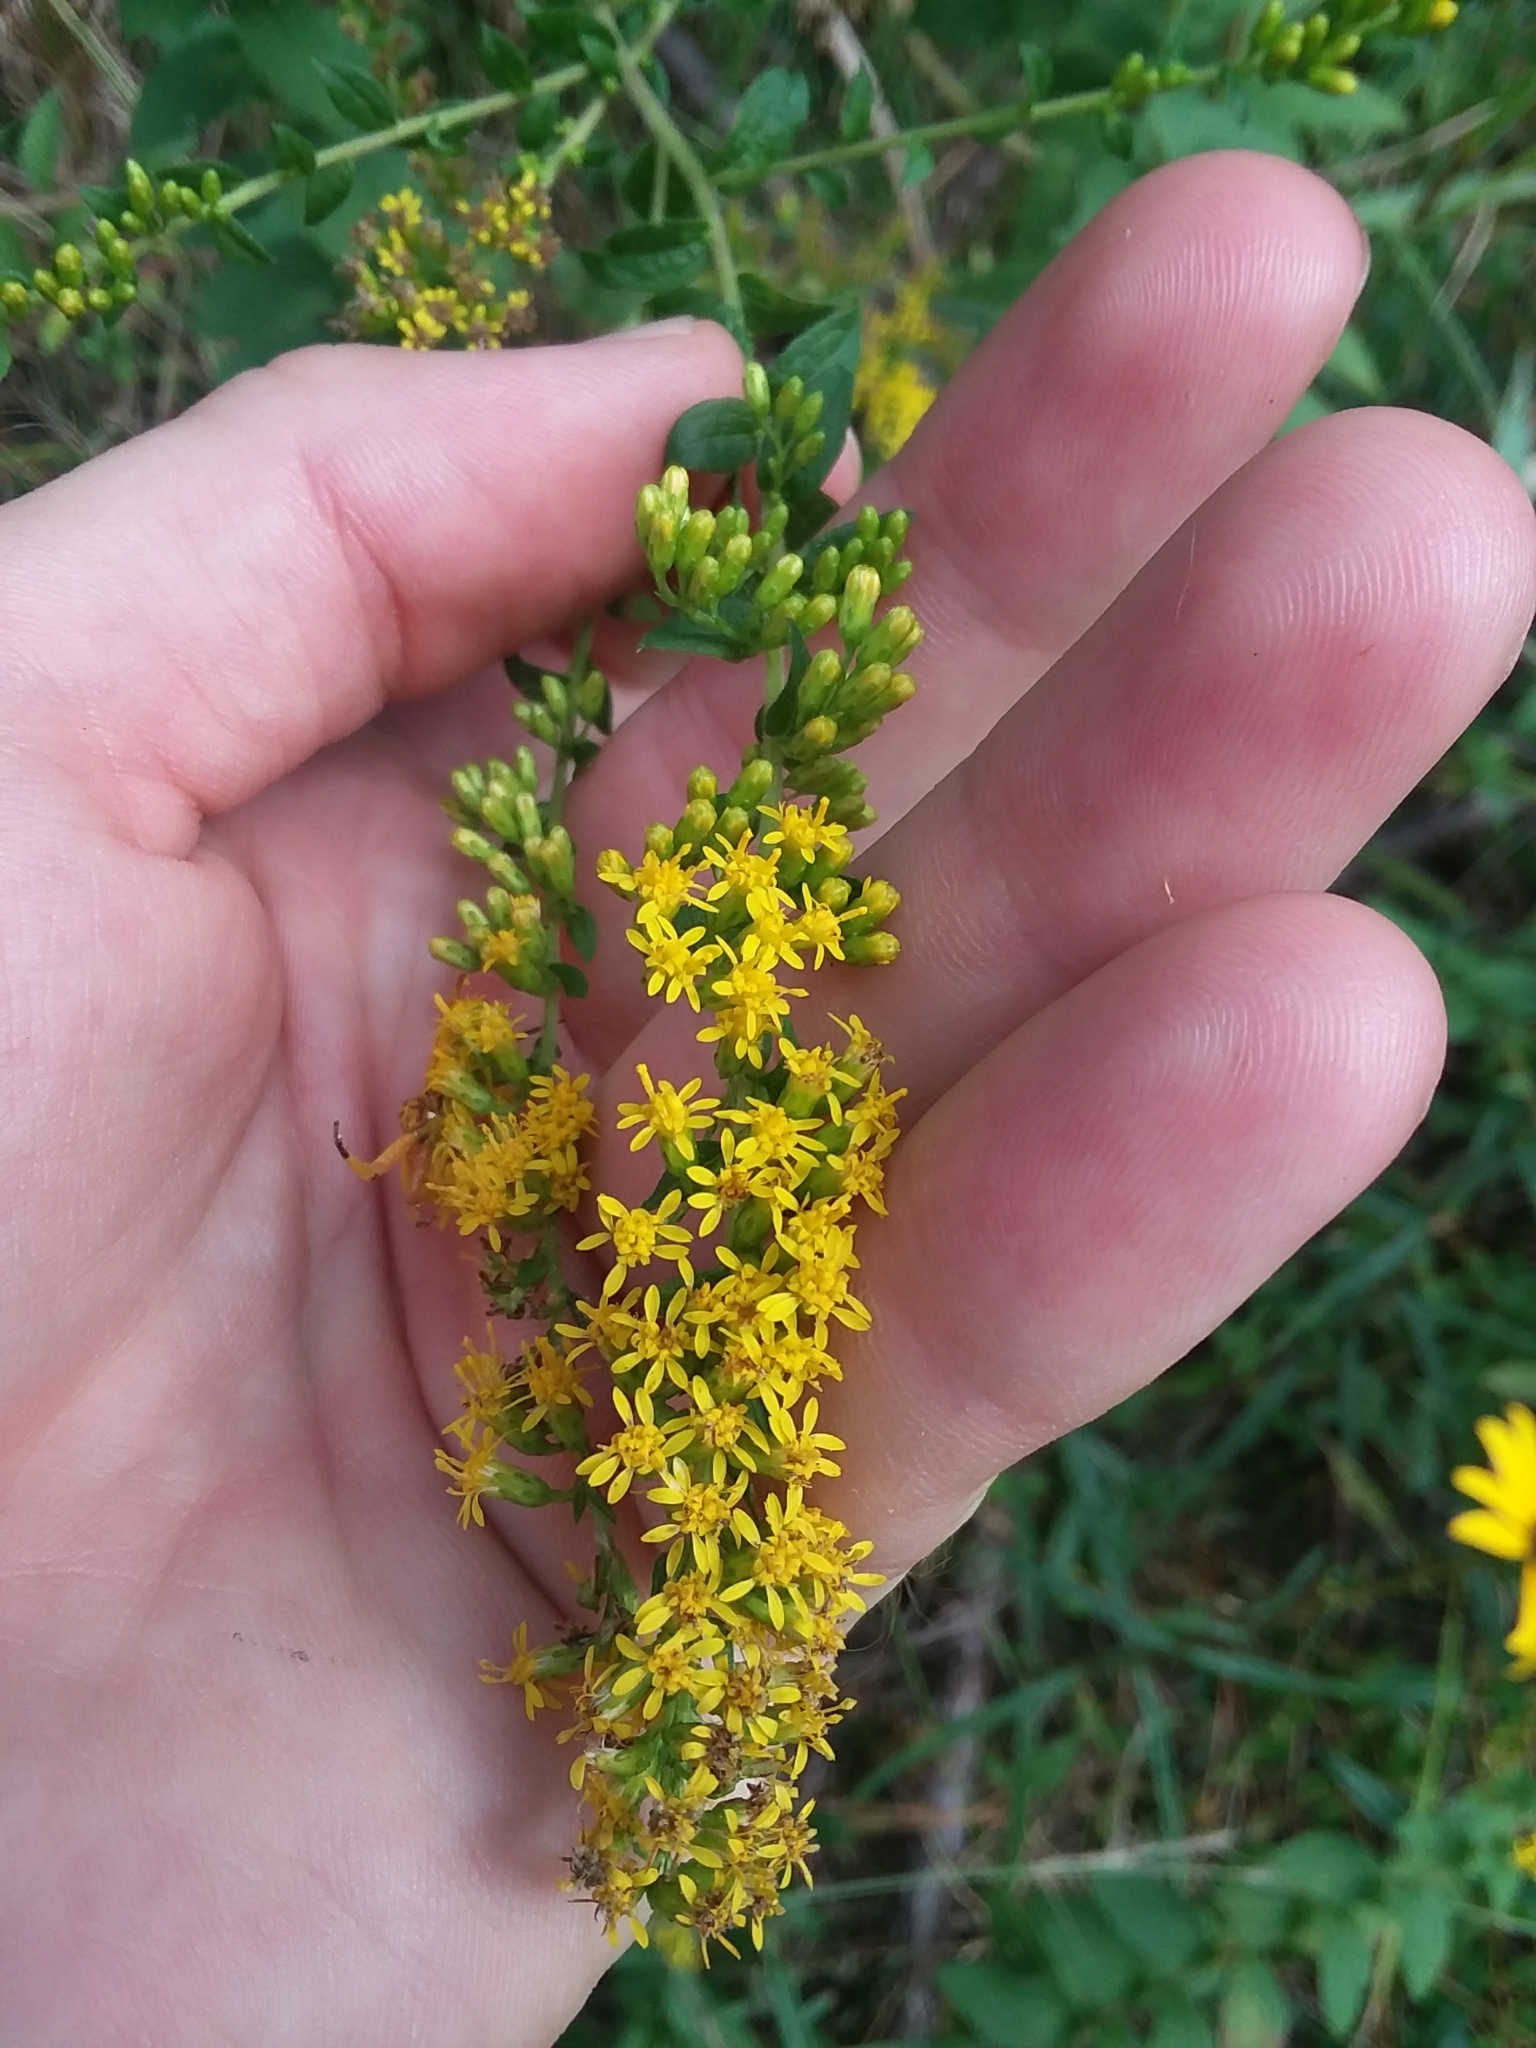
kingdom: Plantae
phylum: Tracheophyta
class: Magnoliopsida
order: Asterales
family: Asteraceae
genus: Solidago
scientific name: Solidago rugosa
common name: Rough-stemmed goldenrod
